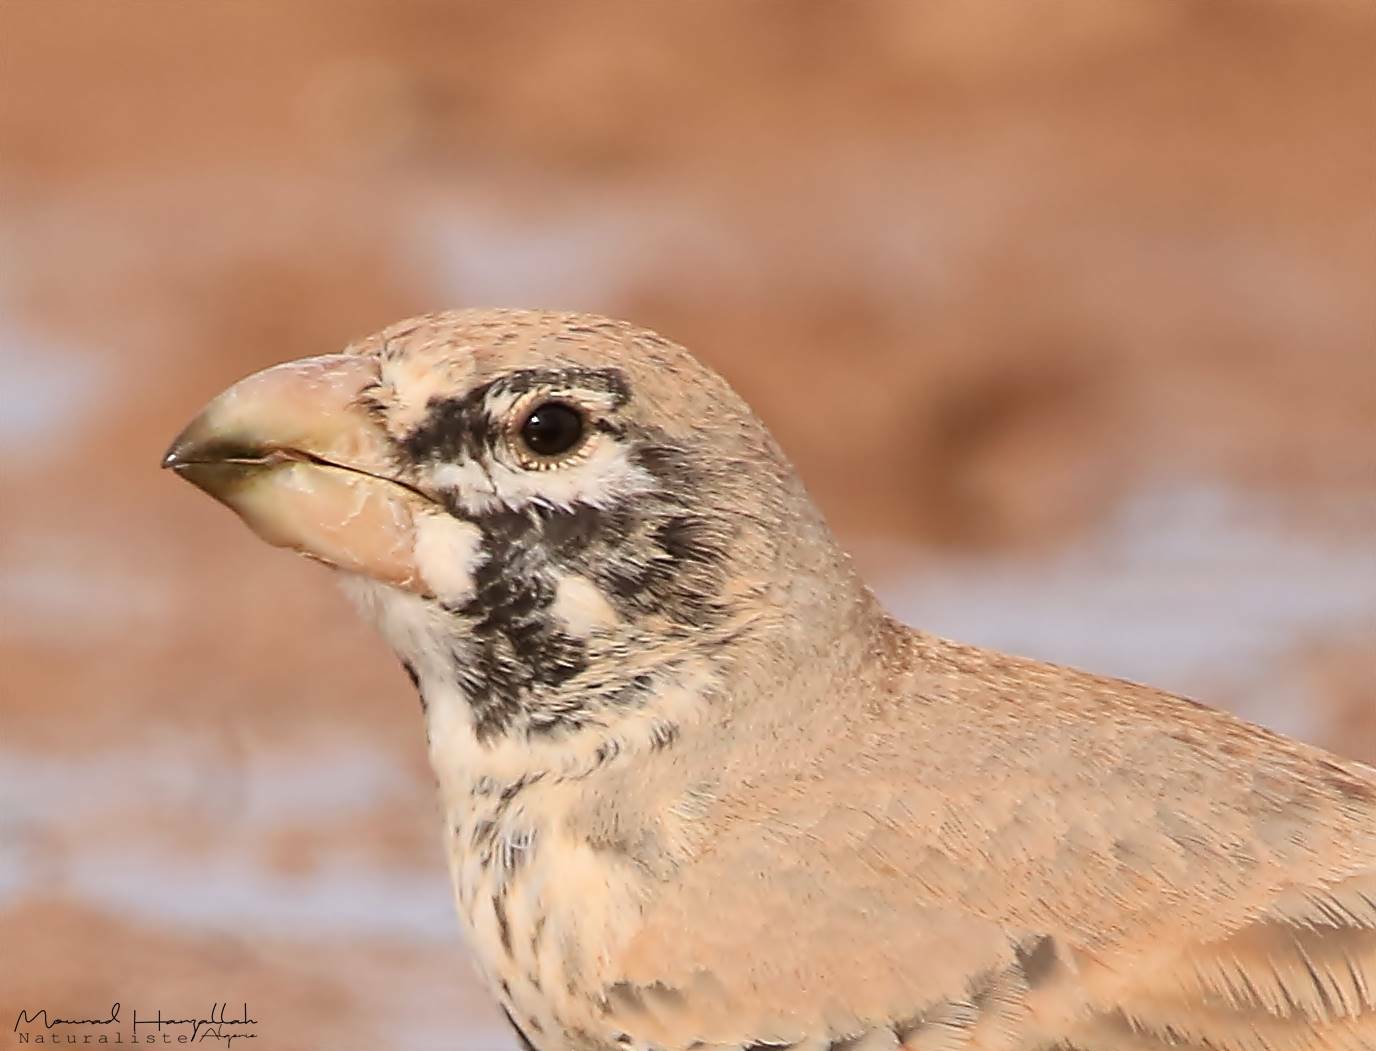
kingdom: Animalia
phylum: Chordata
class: Aves
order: Passeriformes
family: Alaudidae
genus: Ramphocoris
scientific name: Ramphocoris clotbey
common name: Thick-billed lark
